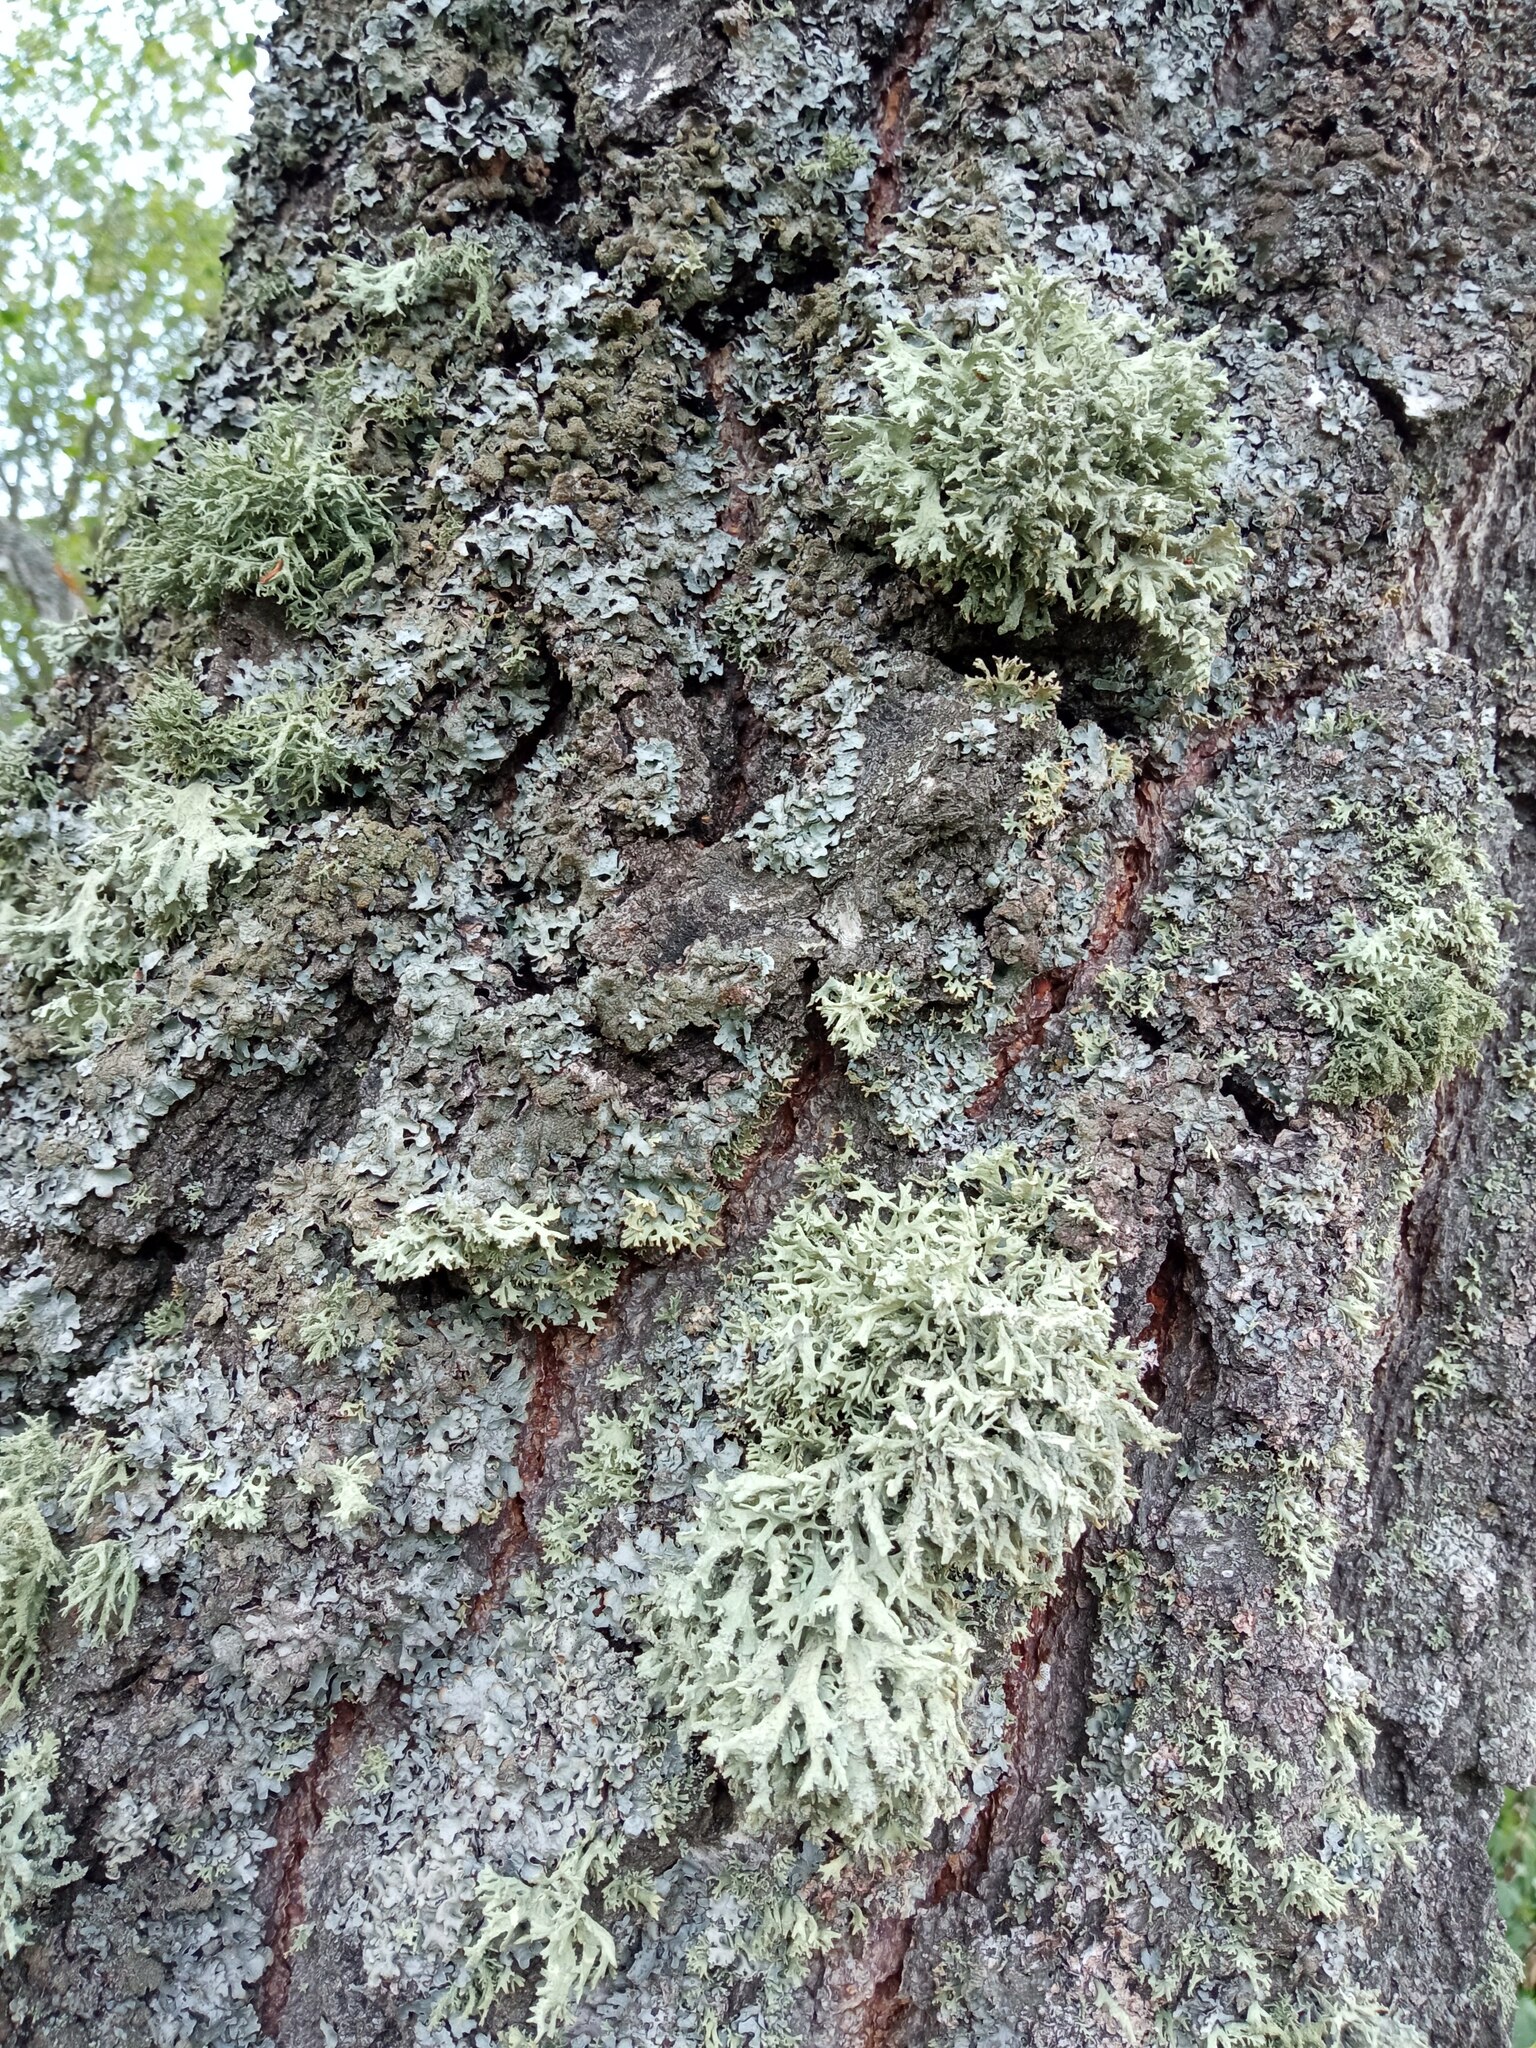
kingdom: Fungi
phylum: Ascomycota
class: Lecanoromycetes
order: Lecanorales
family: Parmeliaceae
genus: Evernia
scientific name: Evernia prunastri
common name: Oak moss
